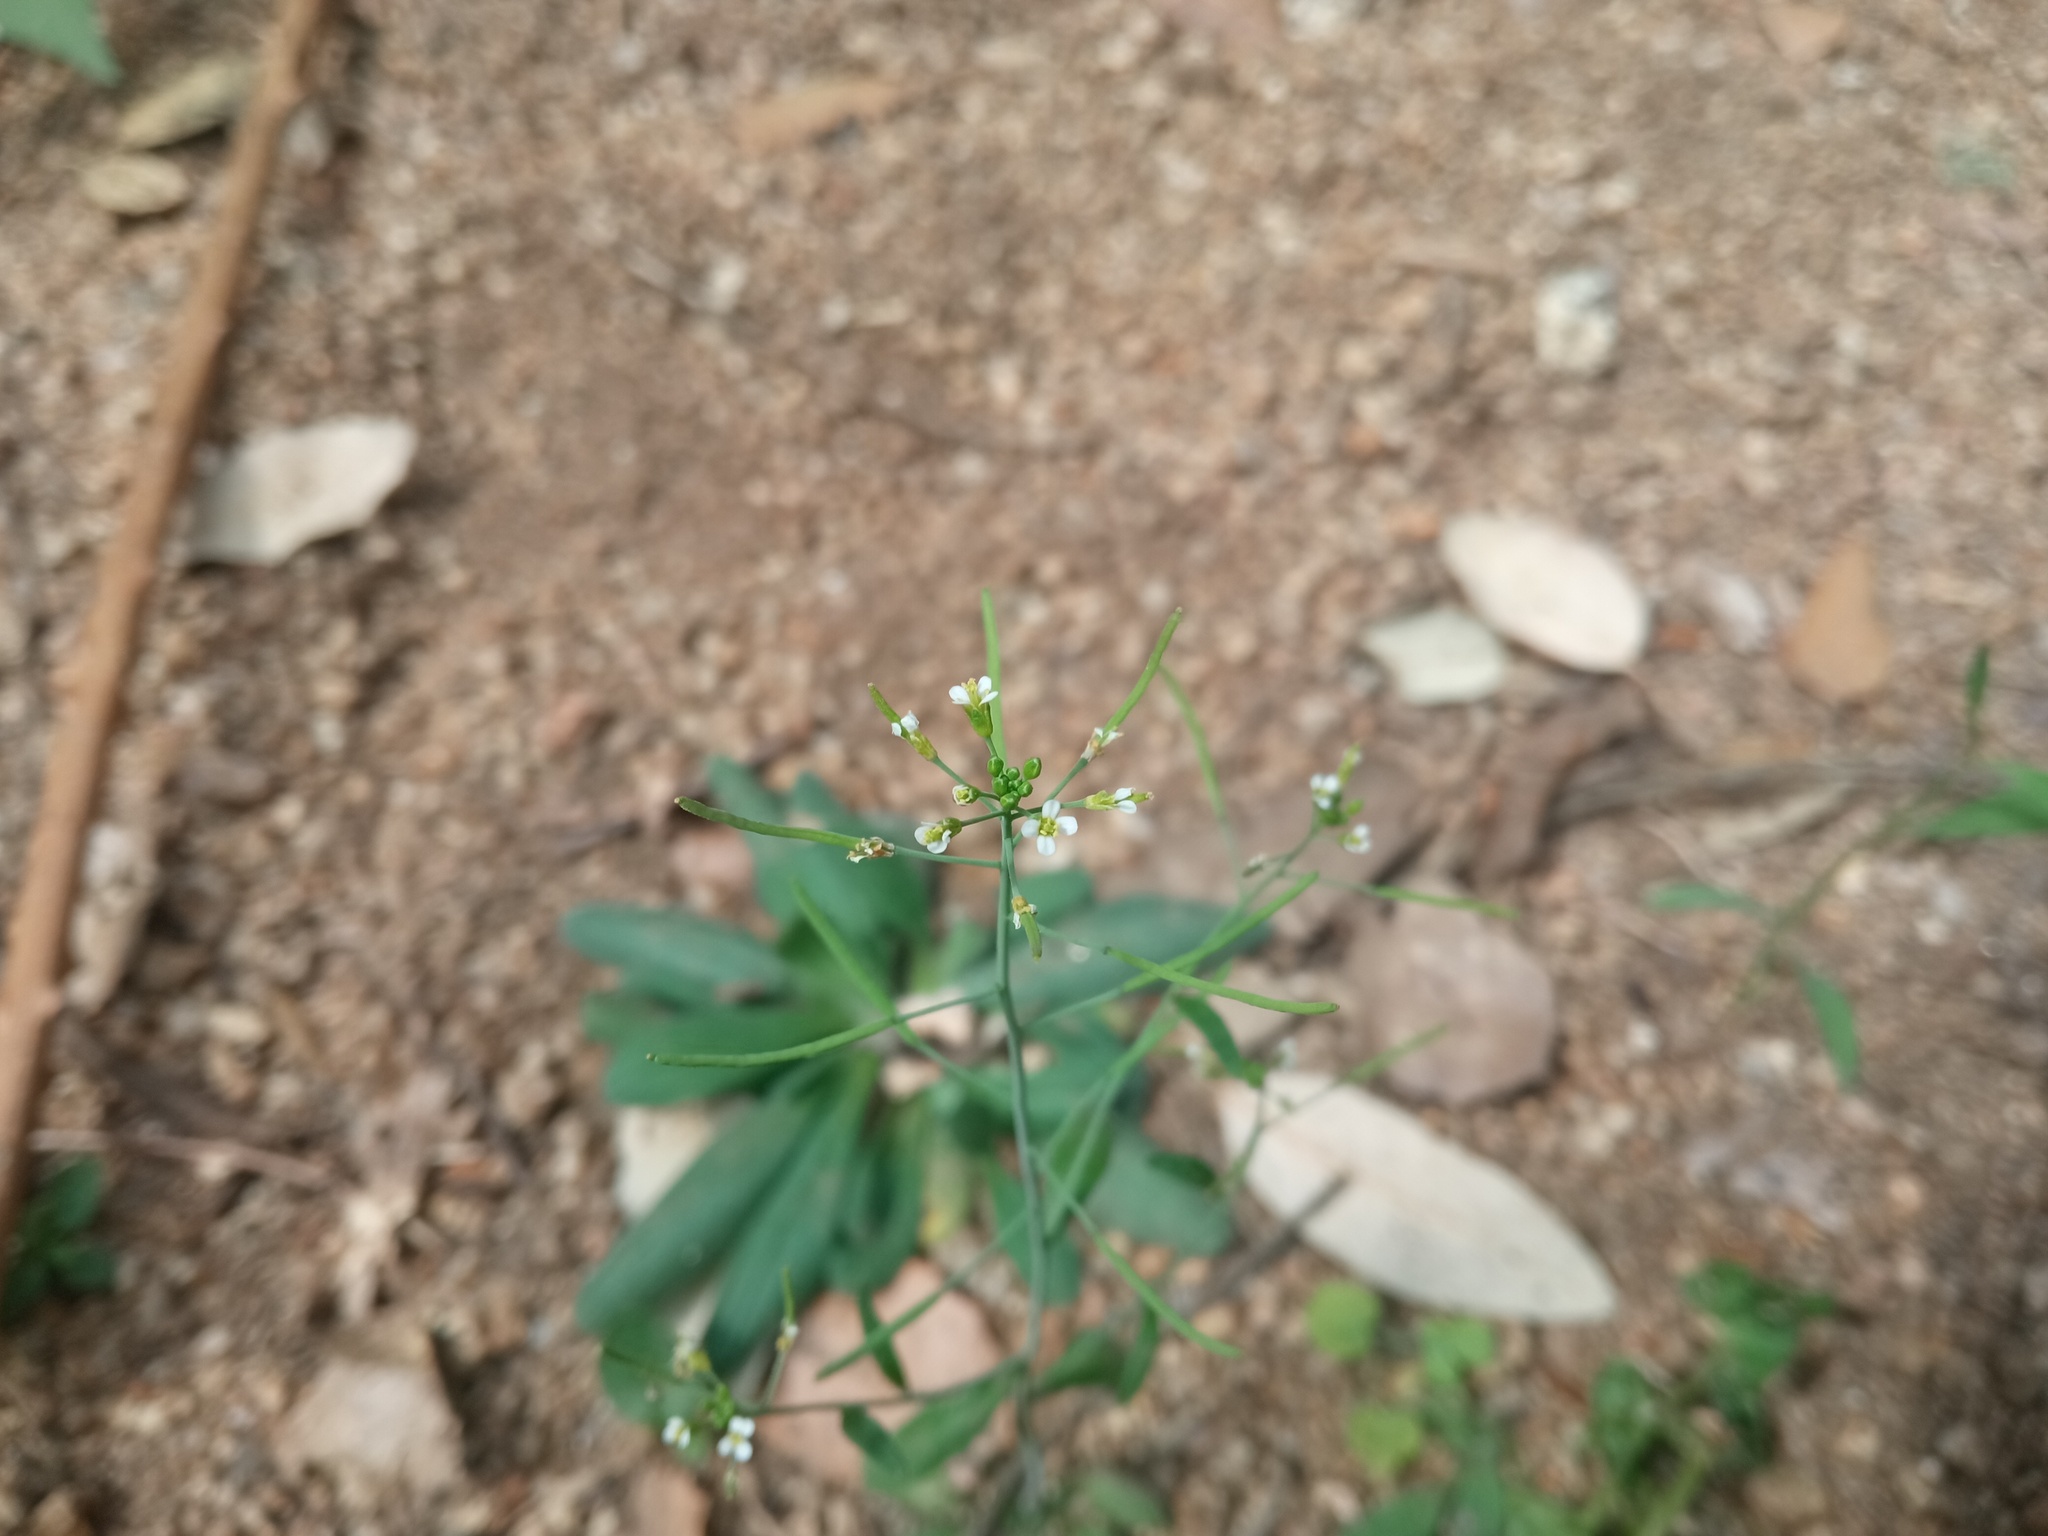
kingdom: Plantae
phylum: Tracheophyta
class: Magnoliopsida
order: Brassicales
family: Brassicaceae
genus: Arabidopsis
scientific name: Arabidopsis thaliana
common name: Thale cress
